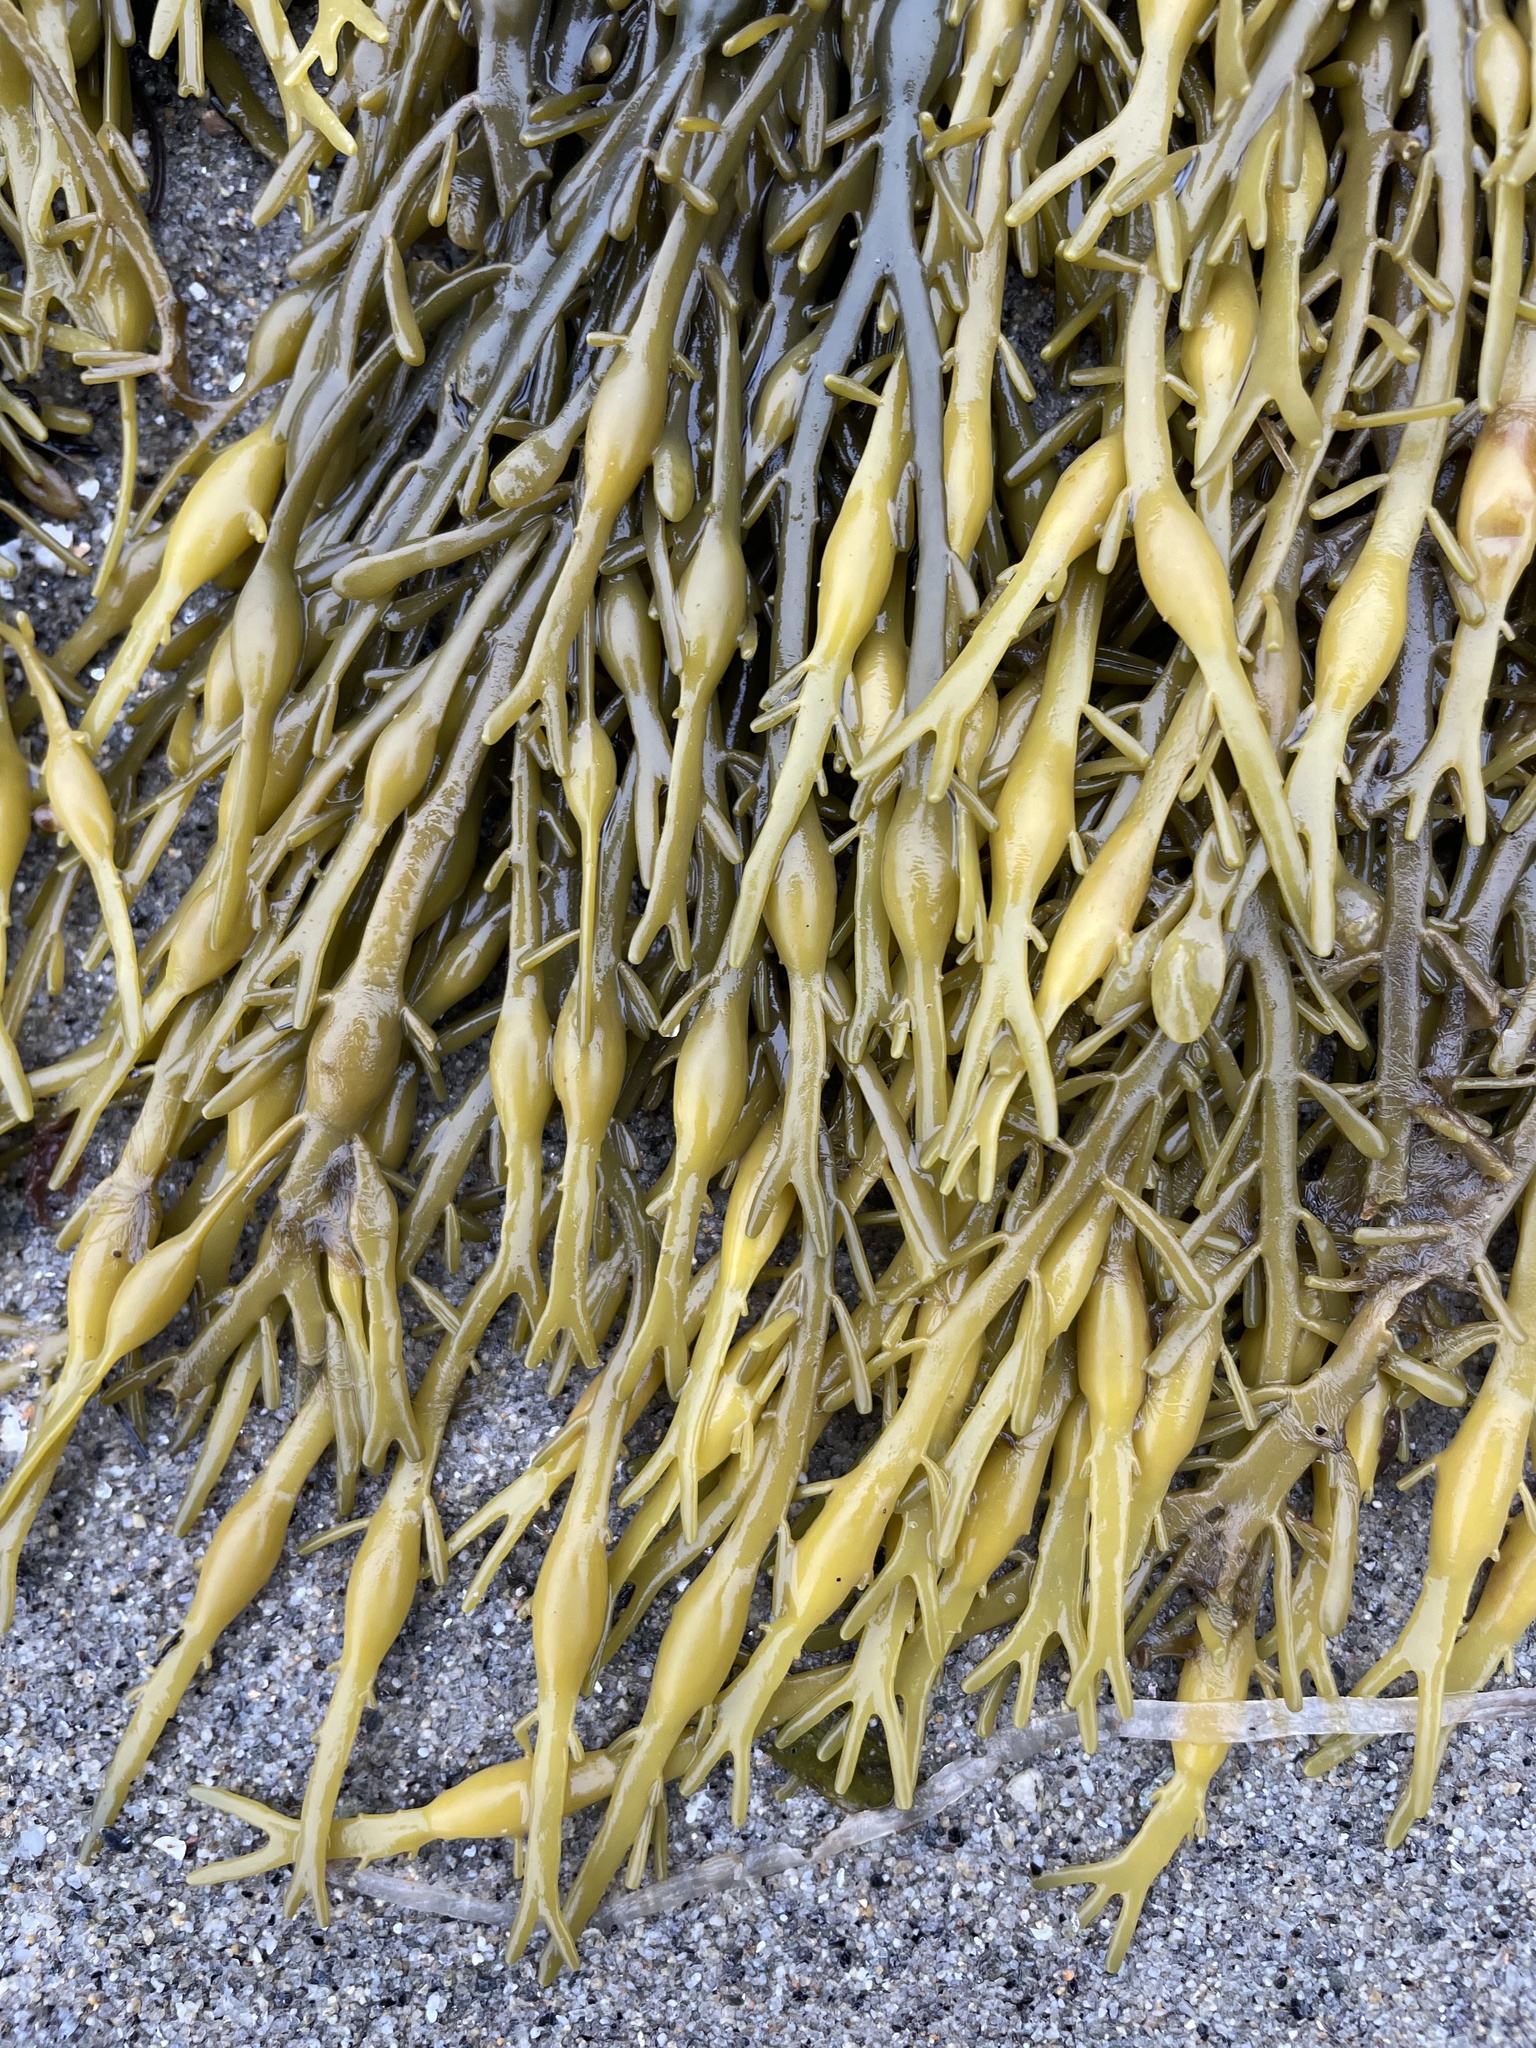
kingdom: Chromista
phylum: Ochrophyta
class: Phaeophyceae
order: Fucales
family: Fucaceae
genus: Ascophyllum
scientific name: Ascophyllum nodosum
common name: Knotted wrack
